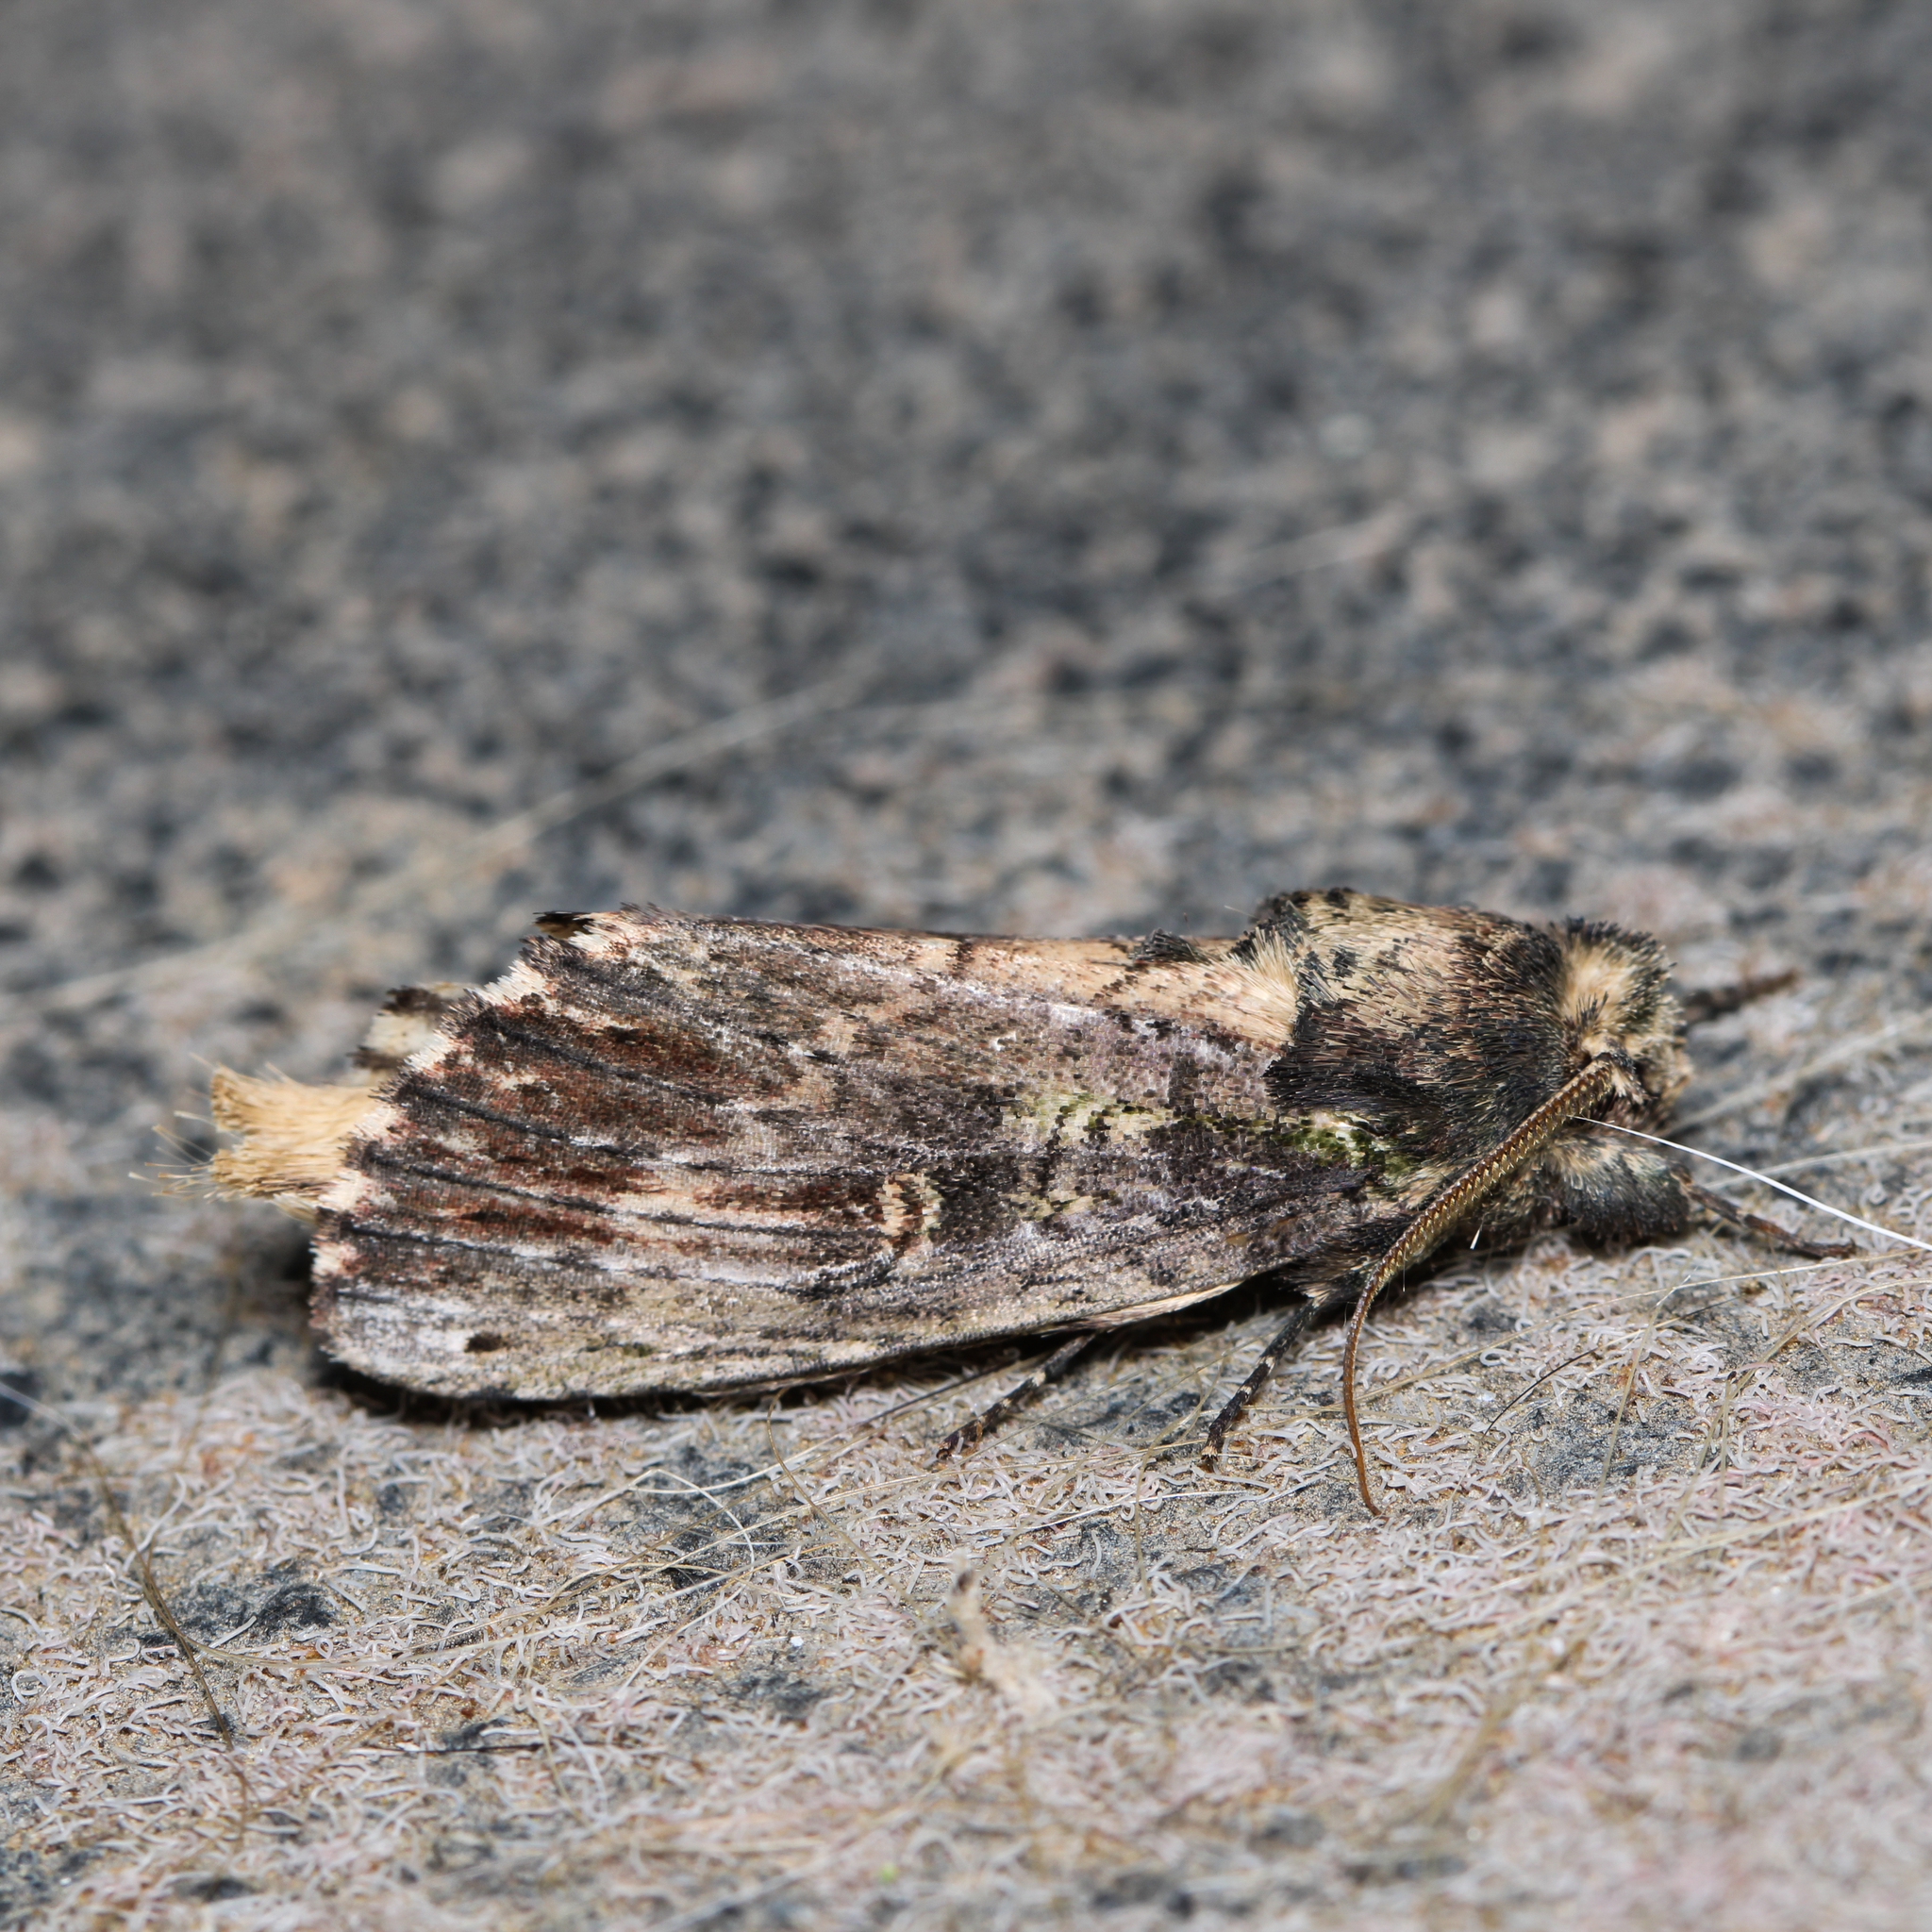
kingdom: Animalia
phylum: Arthropoda
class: Insecta
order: Lepidoptera
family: Notodontidae
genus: Schizura
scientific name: Schizura ipomaeae
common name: Morning-glory prominent
